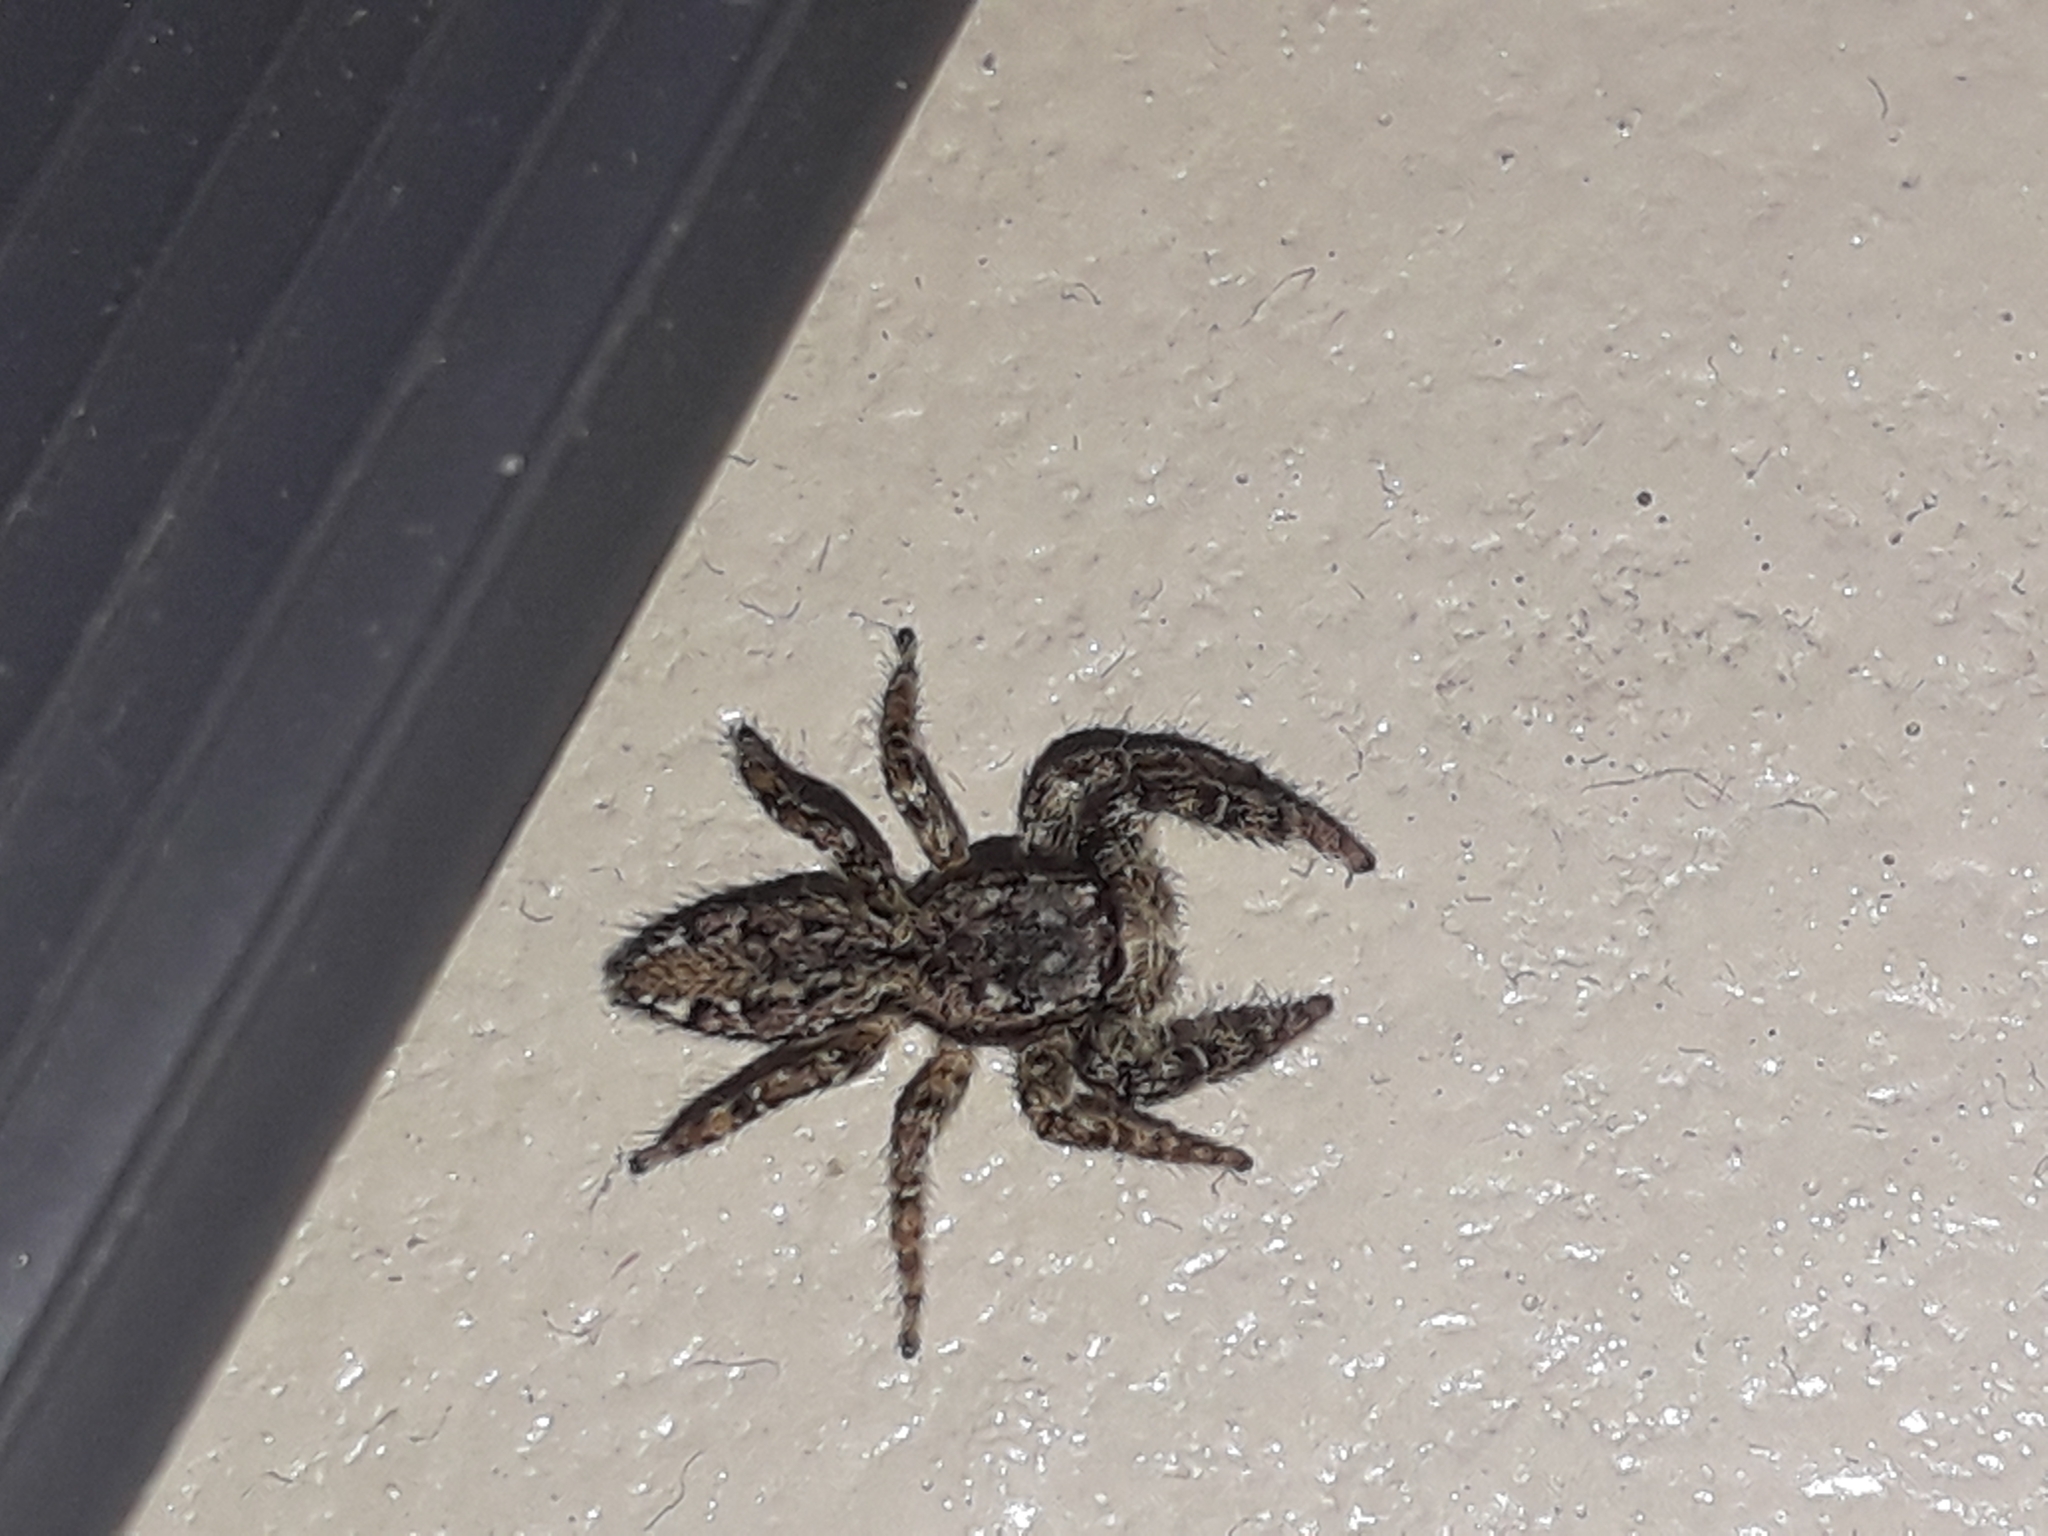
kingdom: Animalia
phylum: Arthropoda
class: Arachnida
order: Araneae
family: Salticidae
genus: Marpissa
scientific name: Marpissa muscosa
